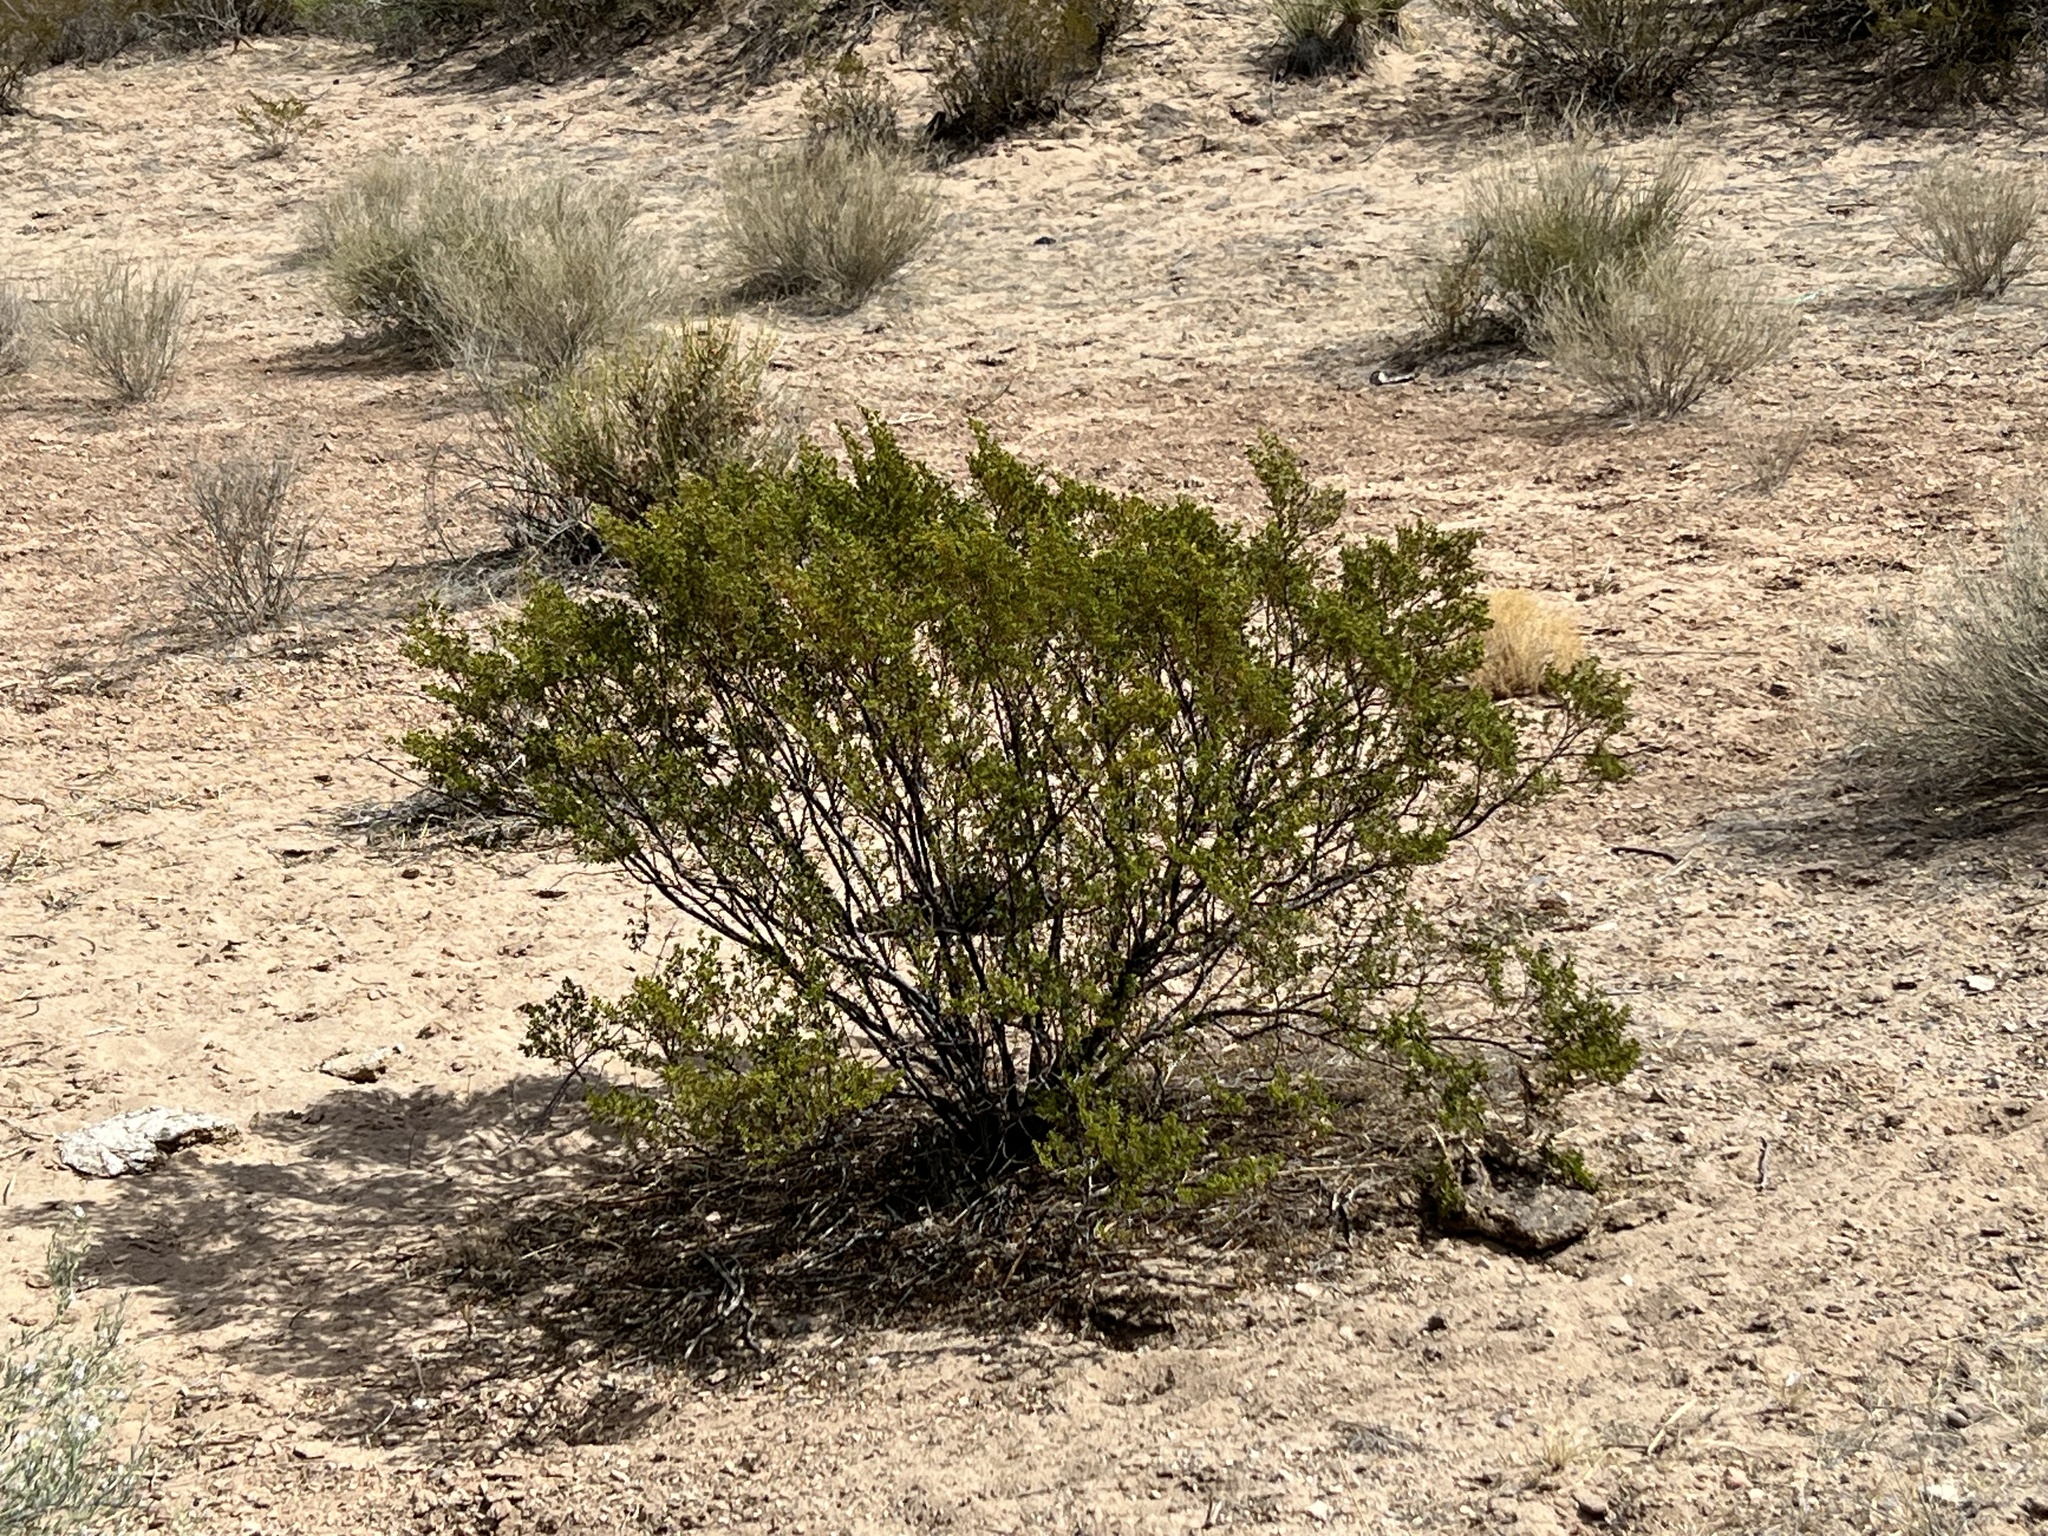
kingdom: Plantae
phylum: Tracheophyta
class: Magnoliopsida
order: Zygophyllales
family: Zygophyllaceae
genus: Larrea
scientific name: Larrea tridentata
